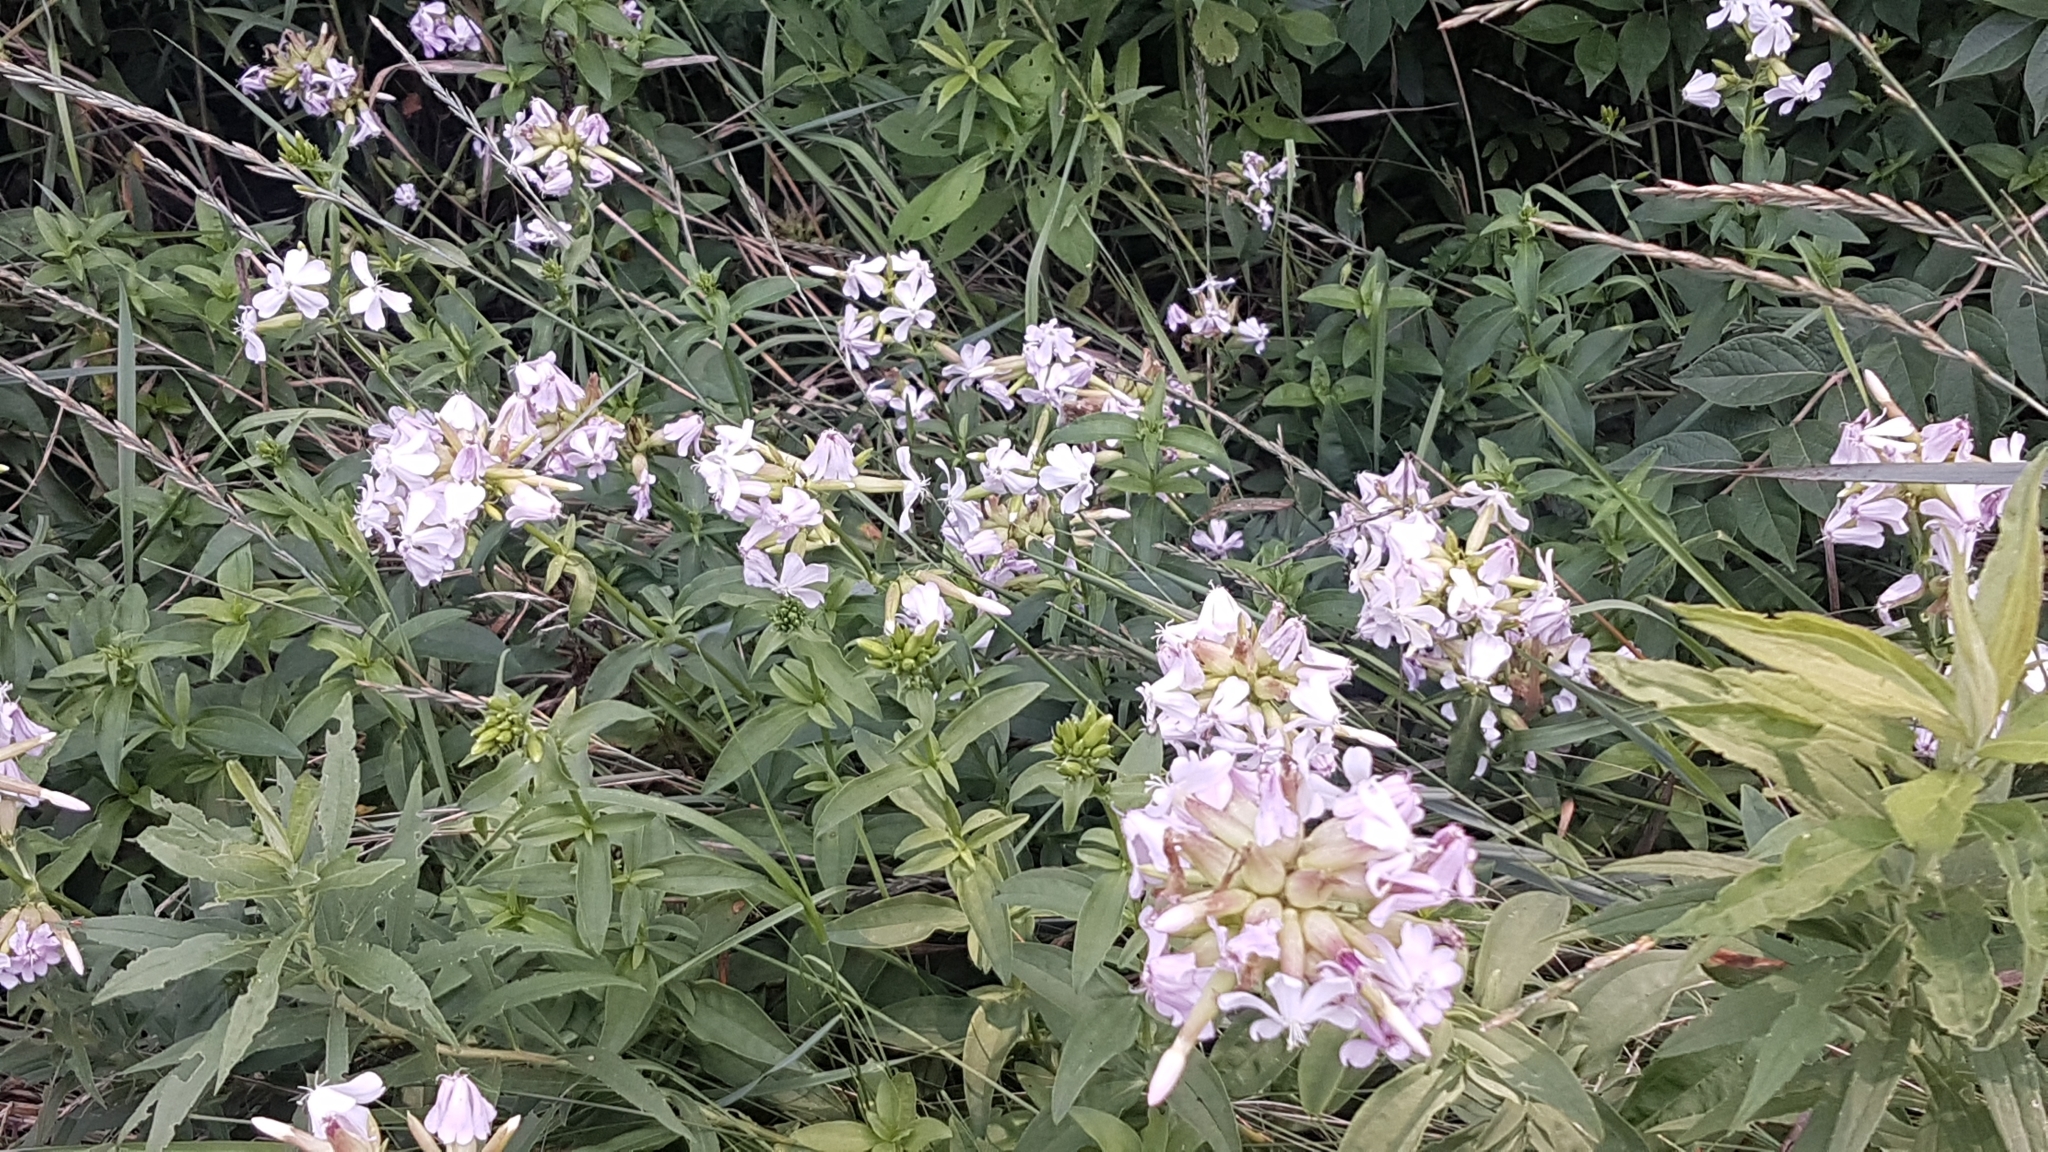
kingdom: Plantae
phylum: Tracheophyta
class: Magnoliopsida
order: Caryophyllales
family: Caryophyllaceae
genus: Saponaria
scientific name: Saponaria officinalis
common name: Soapwort
